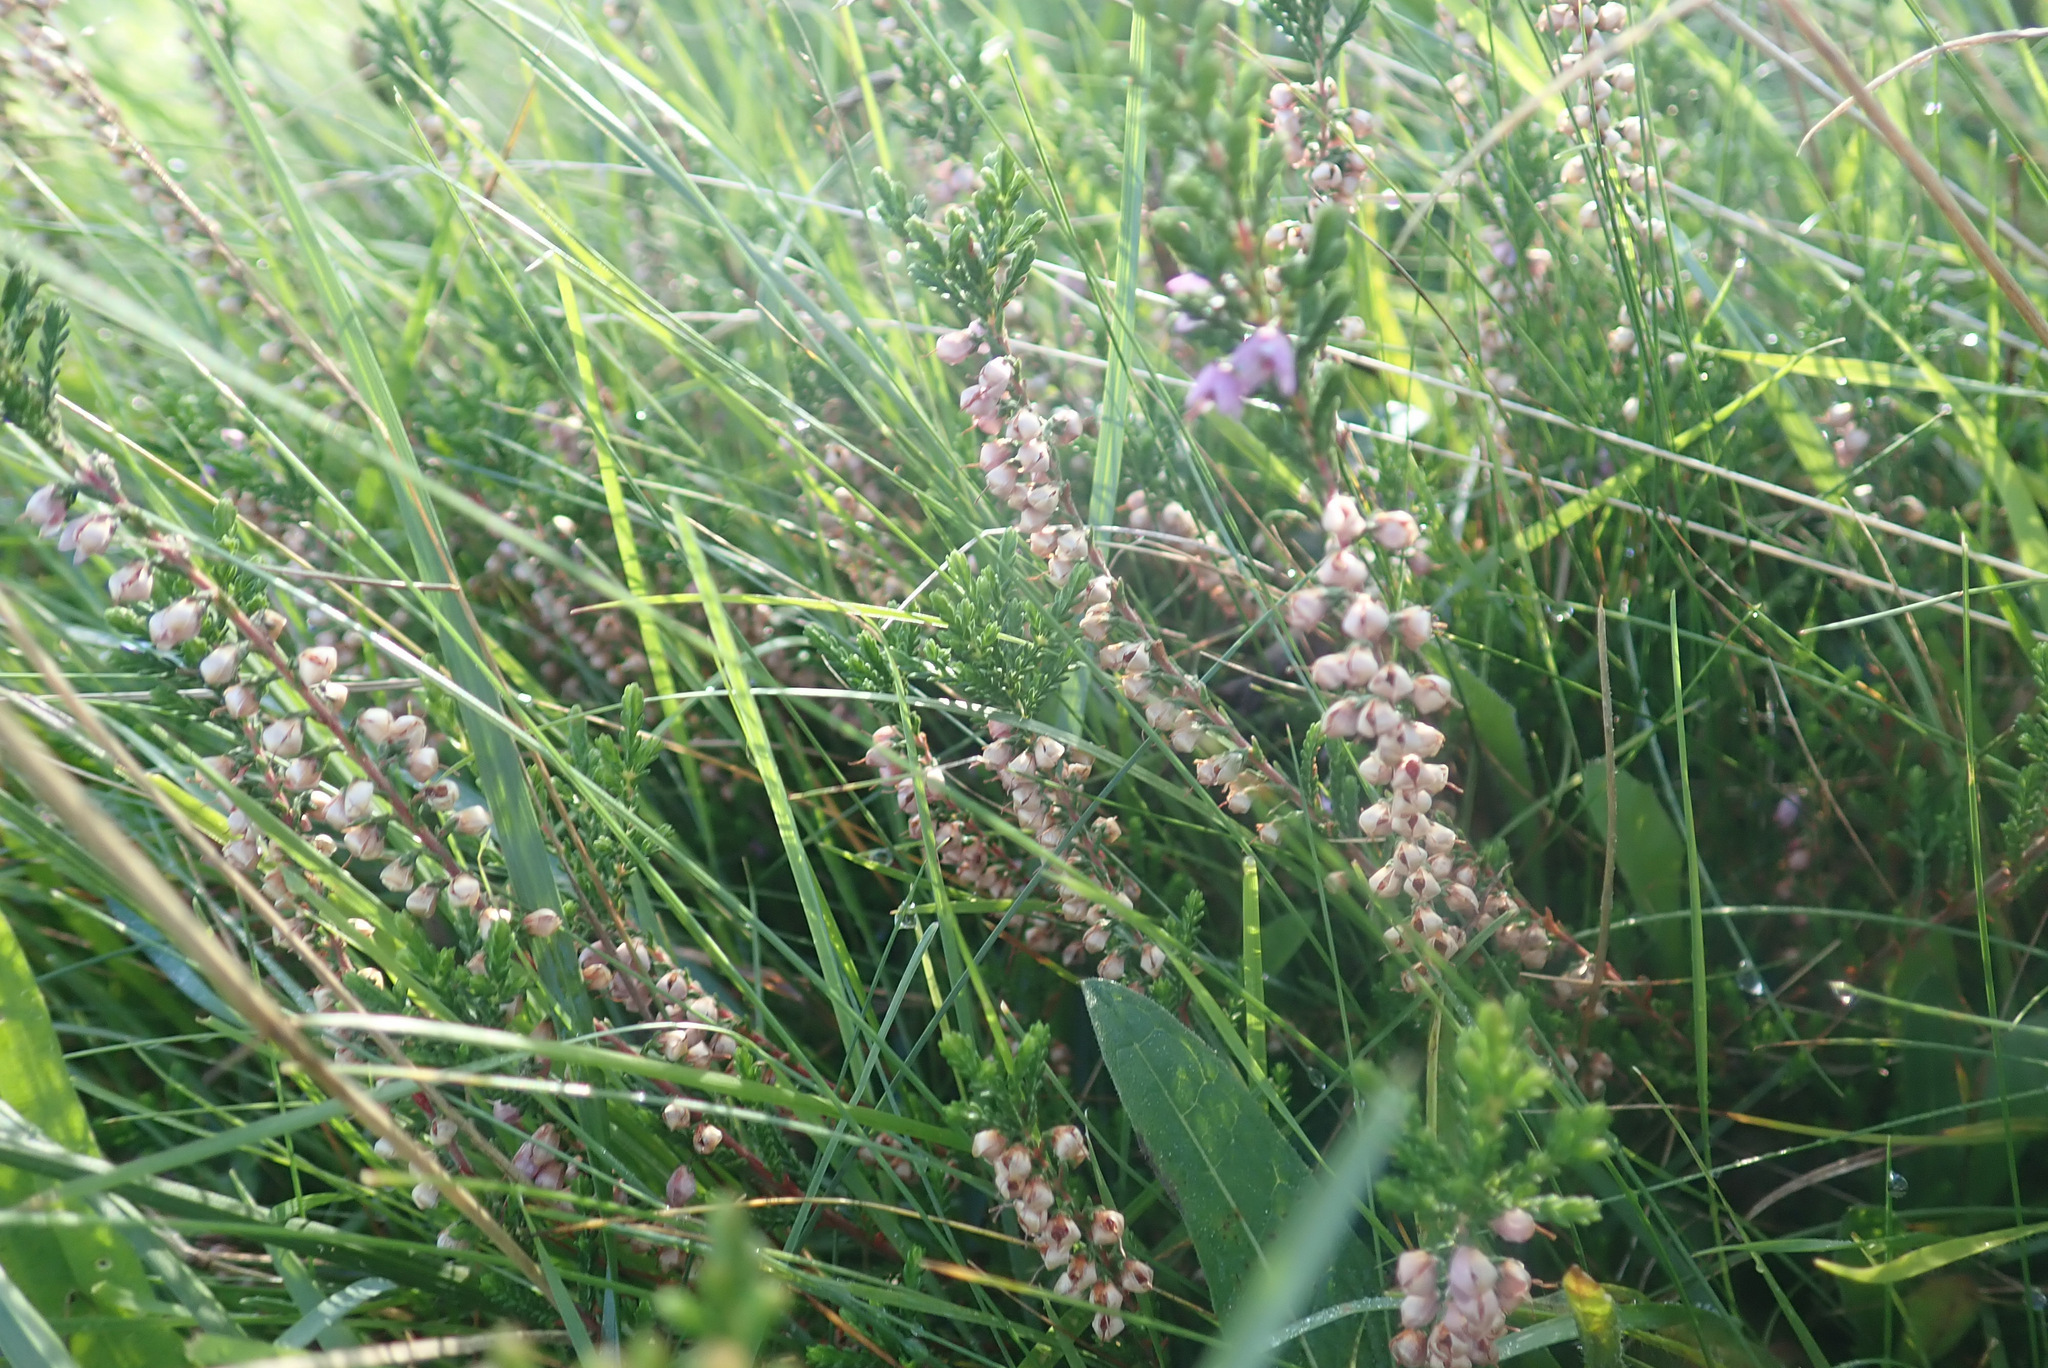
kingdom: Plantae
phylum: Tracheophyta
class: Magnoliopsida
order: Ericales
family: Ericaceae
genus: Calluna
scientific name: Calluna vulgaris
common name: Heather
